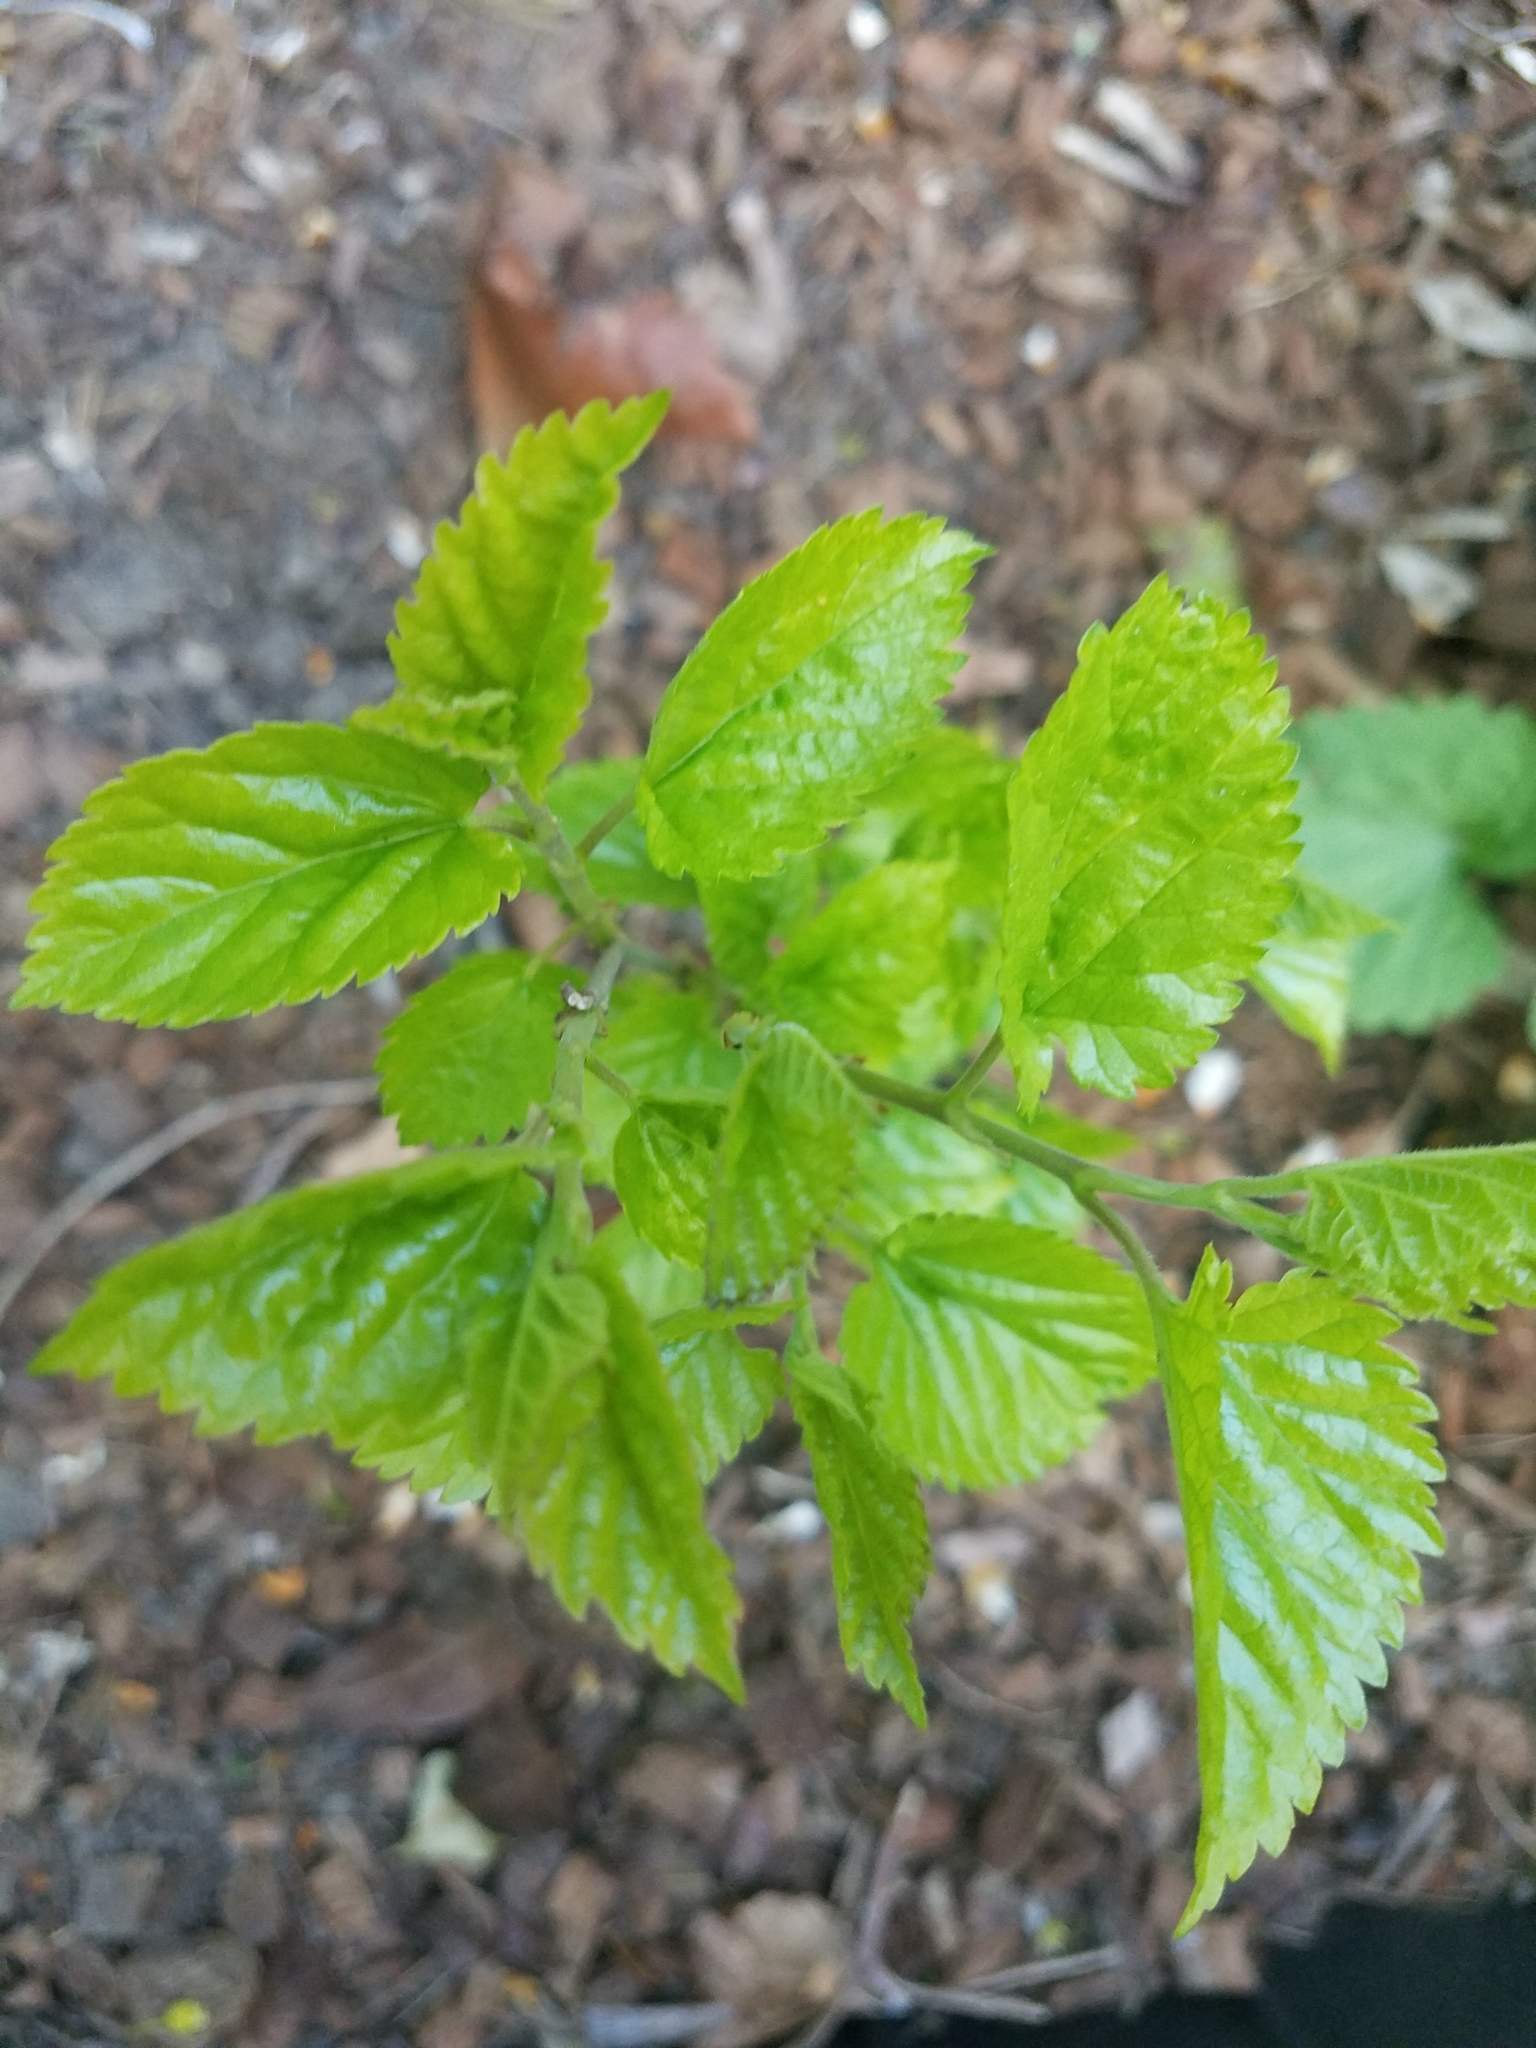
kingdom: Plantae
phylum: Tracheophyta
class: Magnoliopsida
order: Rosales
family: Moraceae
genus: Morus
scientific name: Morus alba
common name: White mulberry
